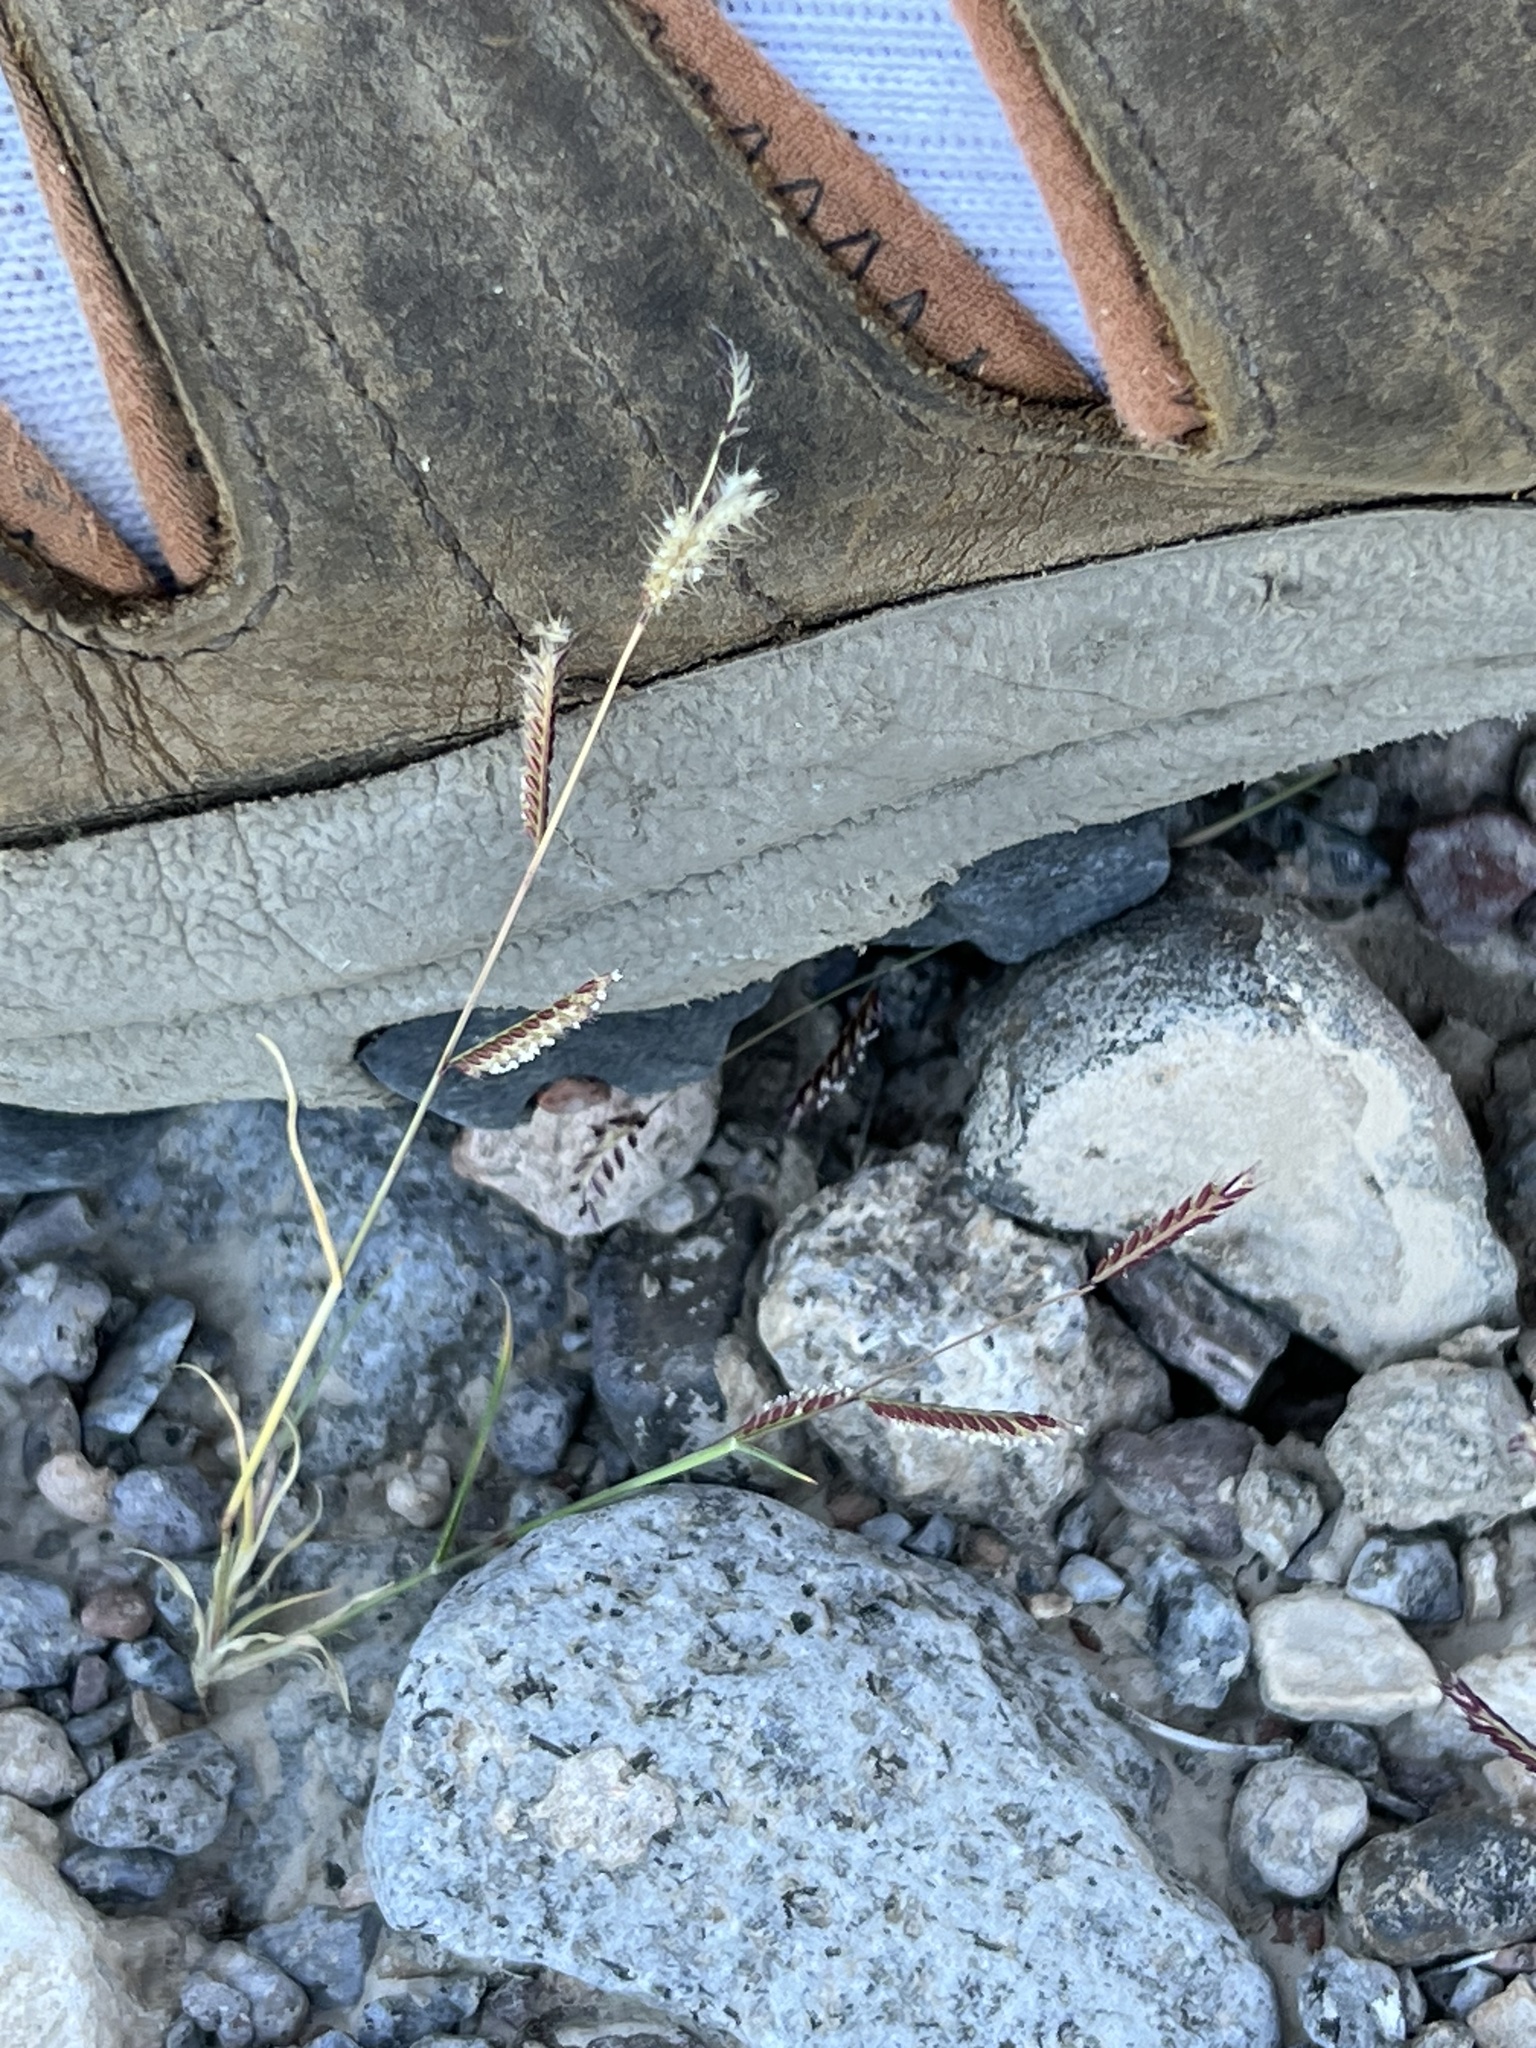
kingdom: Plantae
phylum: Tracheophyta
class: Liliopsida
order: Poales
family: Poaceae
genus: Bouteloua
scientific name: Bouteloua barbata
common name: Six-weeks grama
